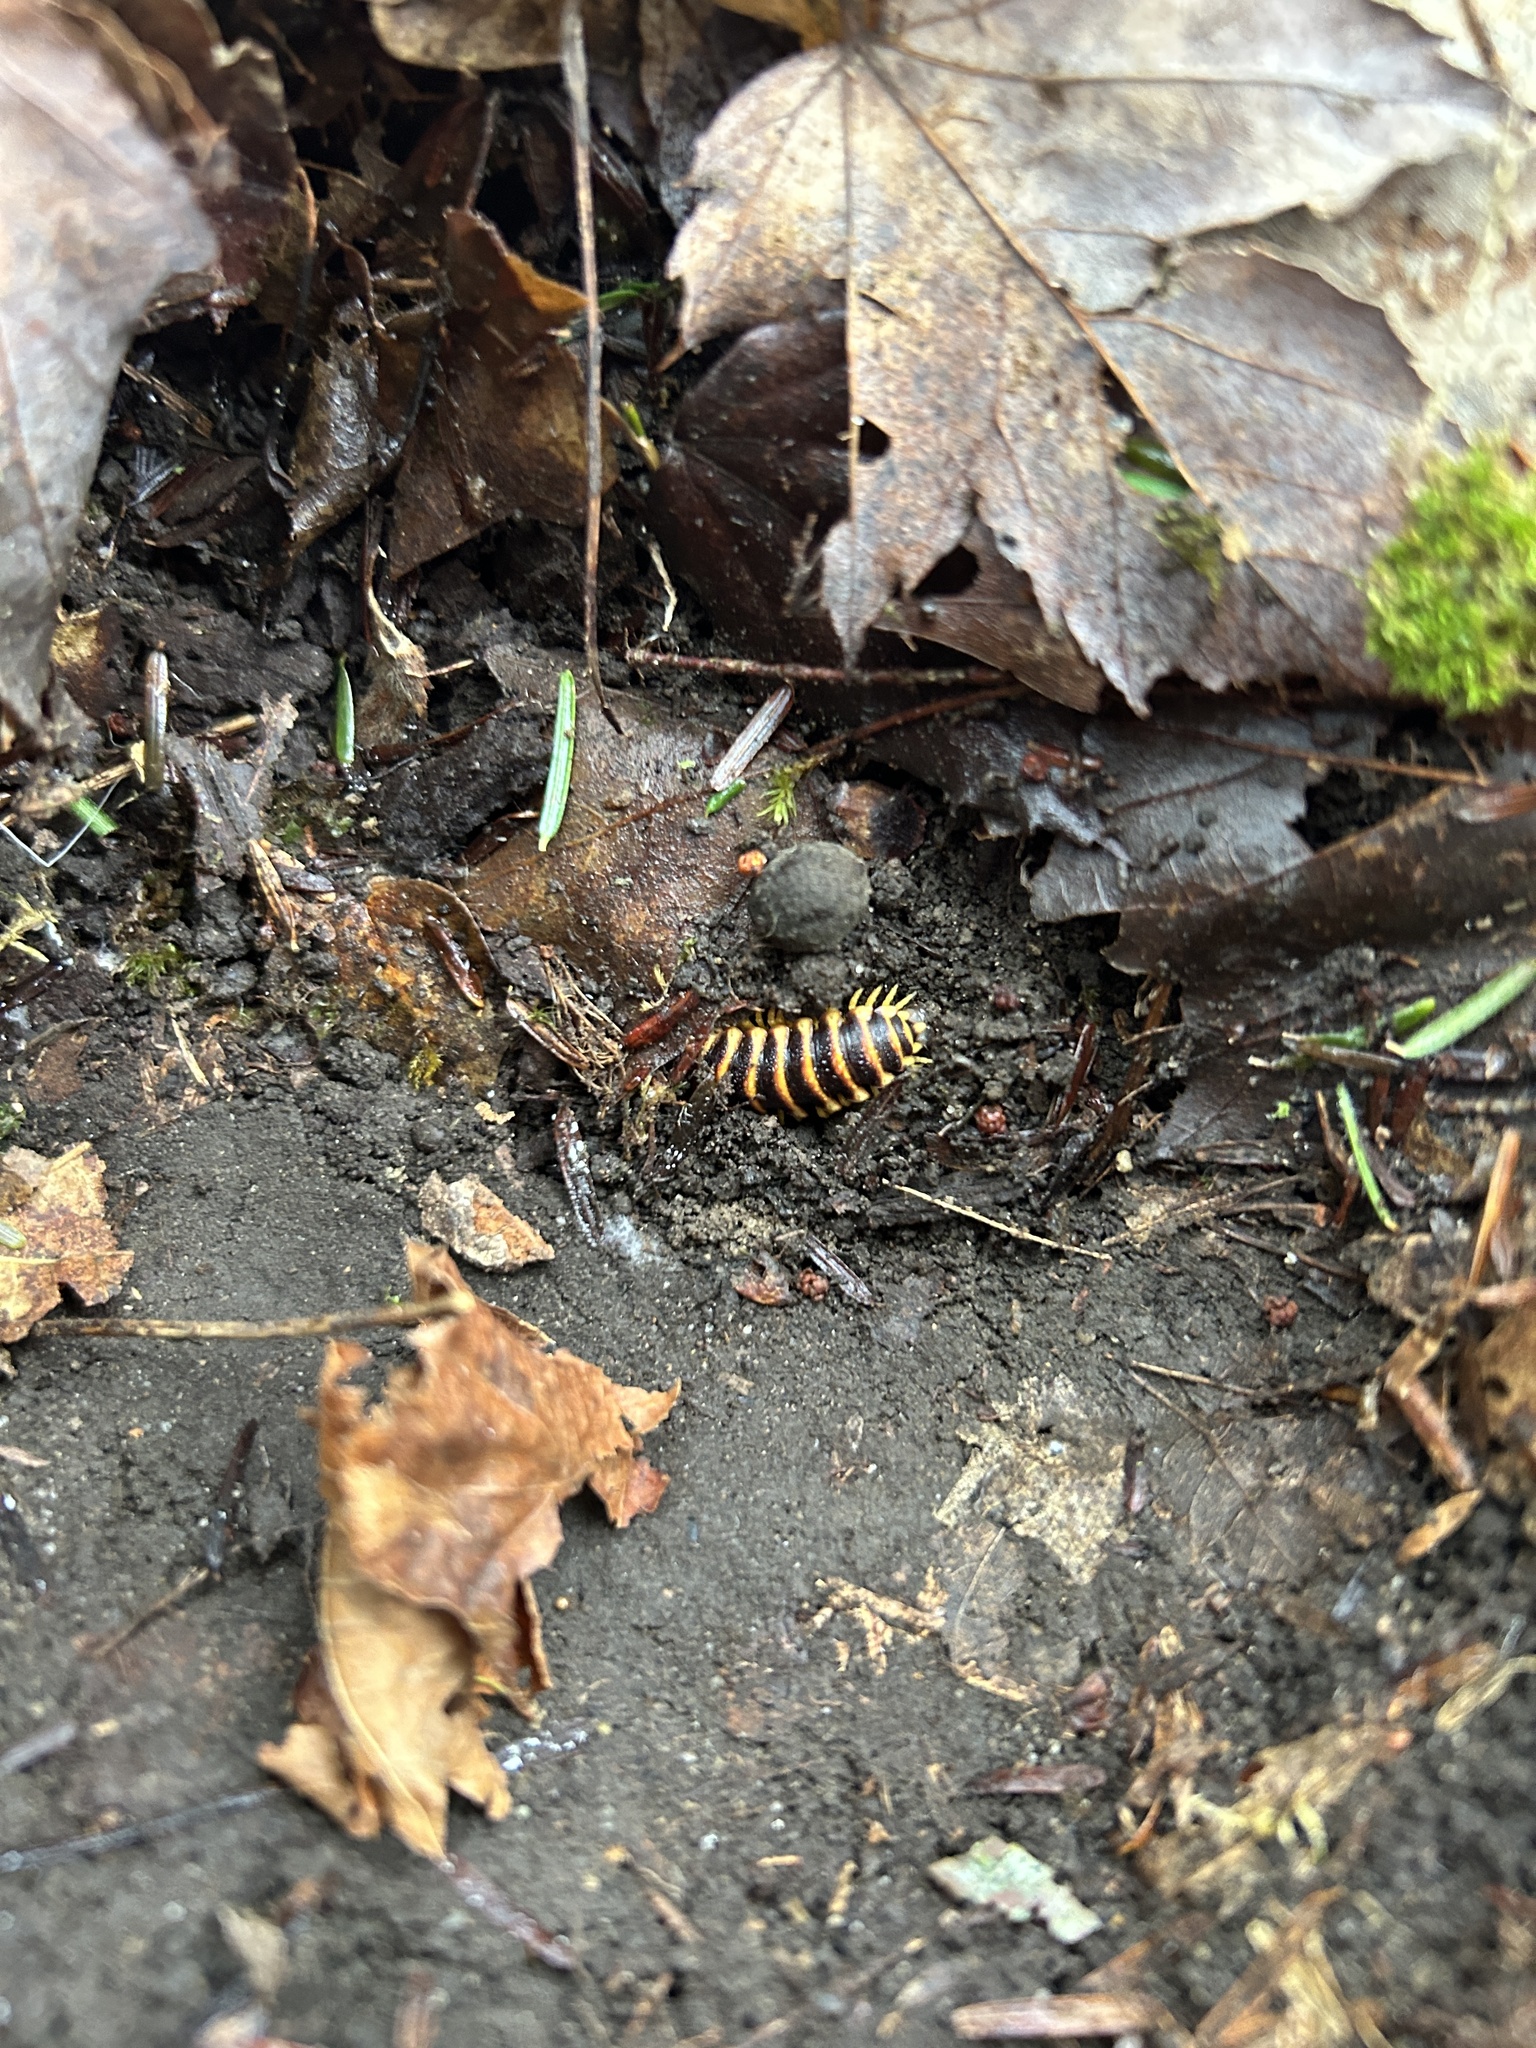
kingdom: Animalia
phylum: Arthropoda
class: Diplopoda
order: Polydesmida
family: Xystodesmidae
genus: Apheloria
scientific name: Apheloria virginiensis
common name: Black-and-gold flat millipede
